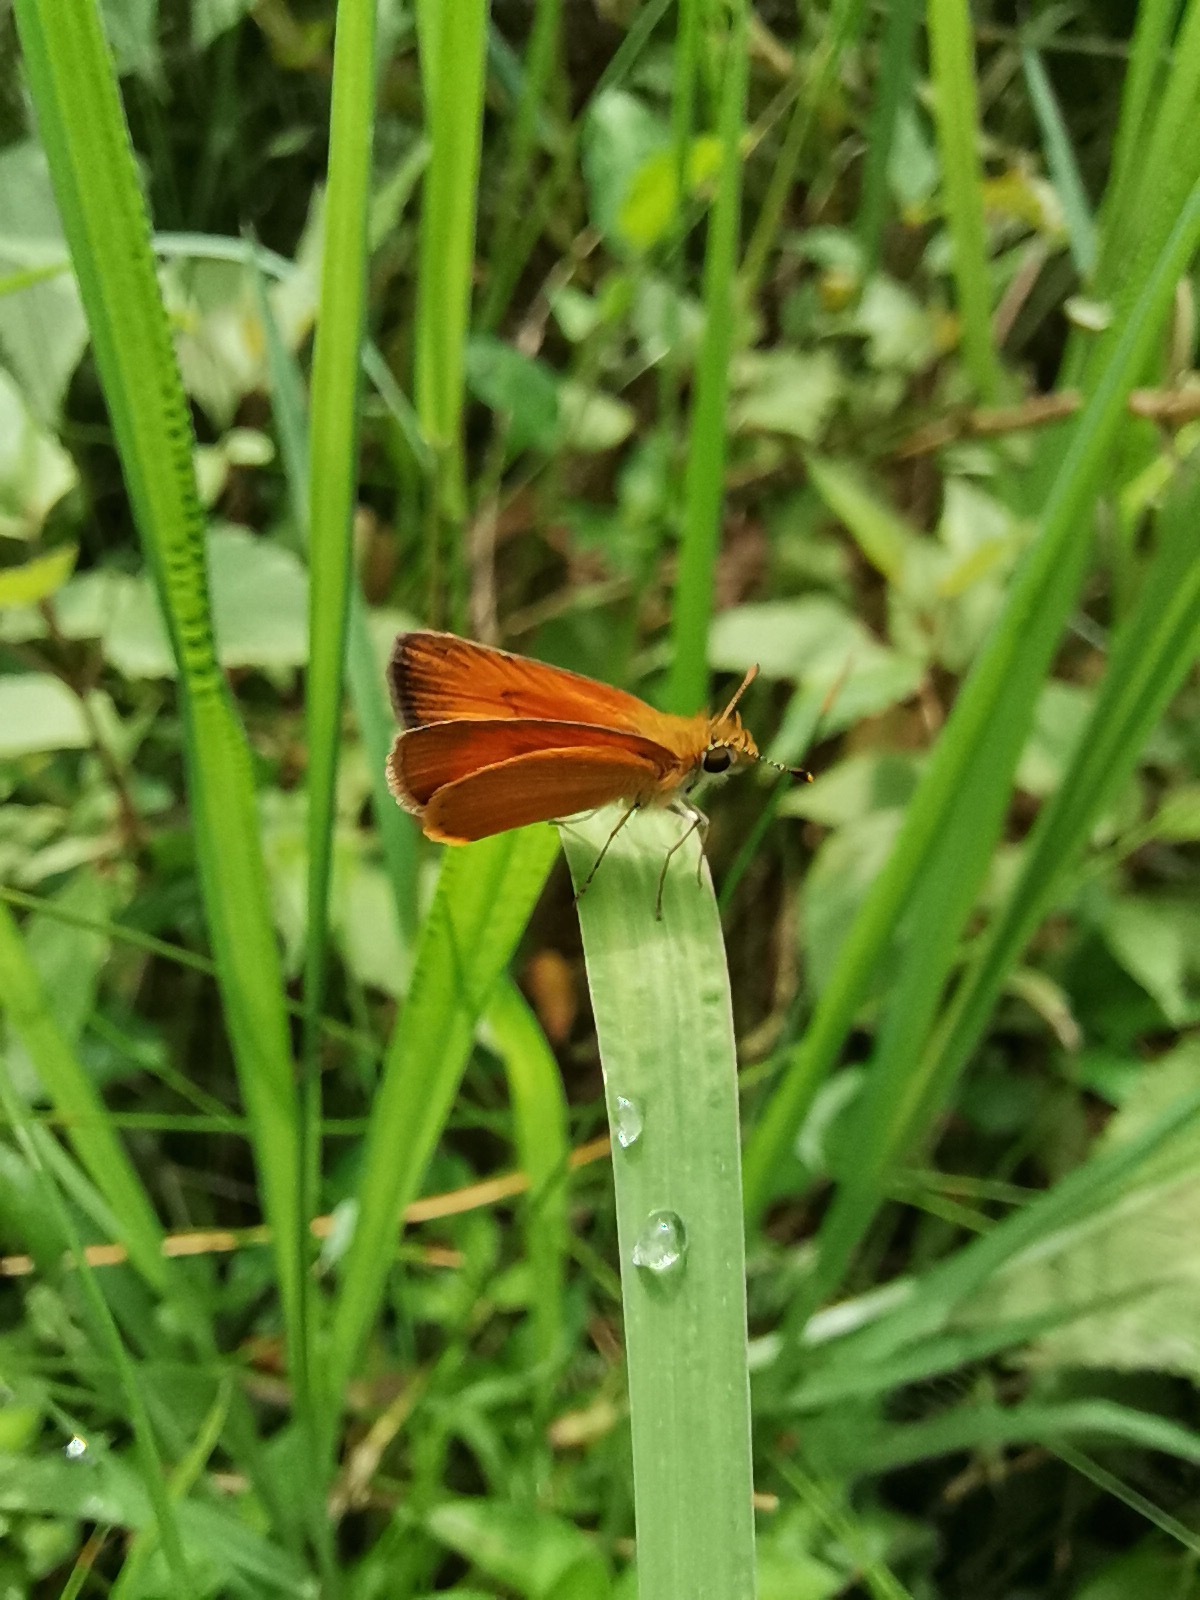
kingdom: Animalia
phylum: Arthropoda
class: Insecta
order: Lepidoptera
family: Hesperiidae
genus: Ancyloxypha
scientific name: Ancyloxypha arene
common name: Tropical least skipper
